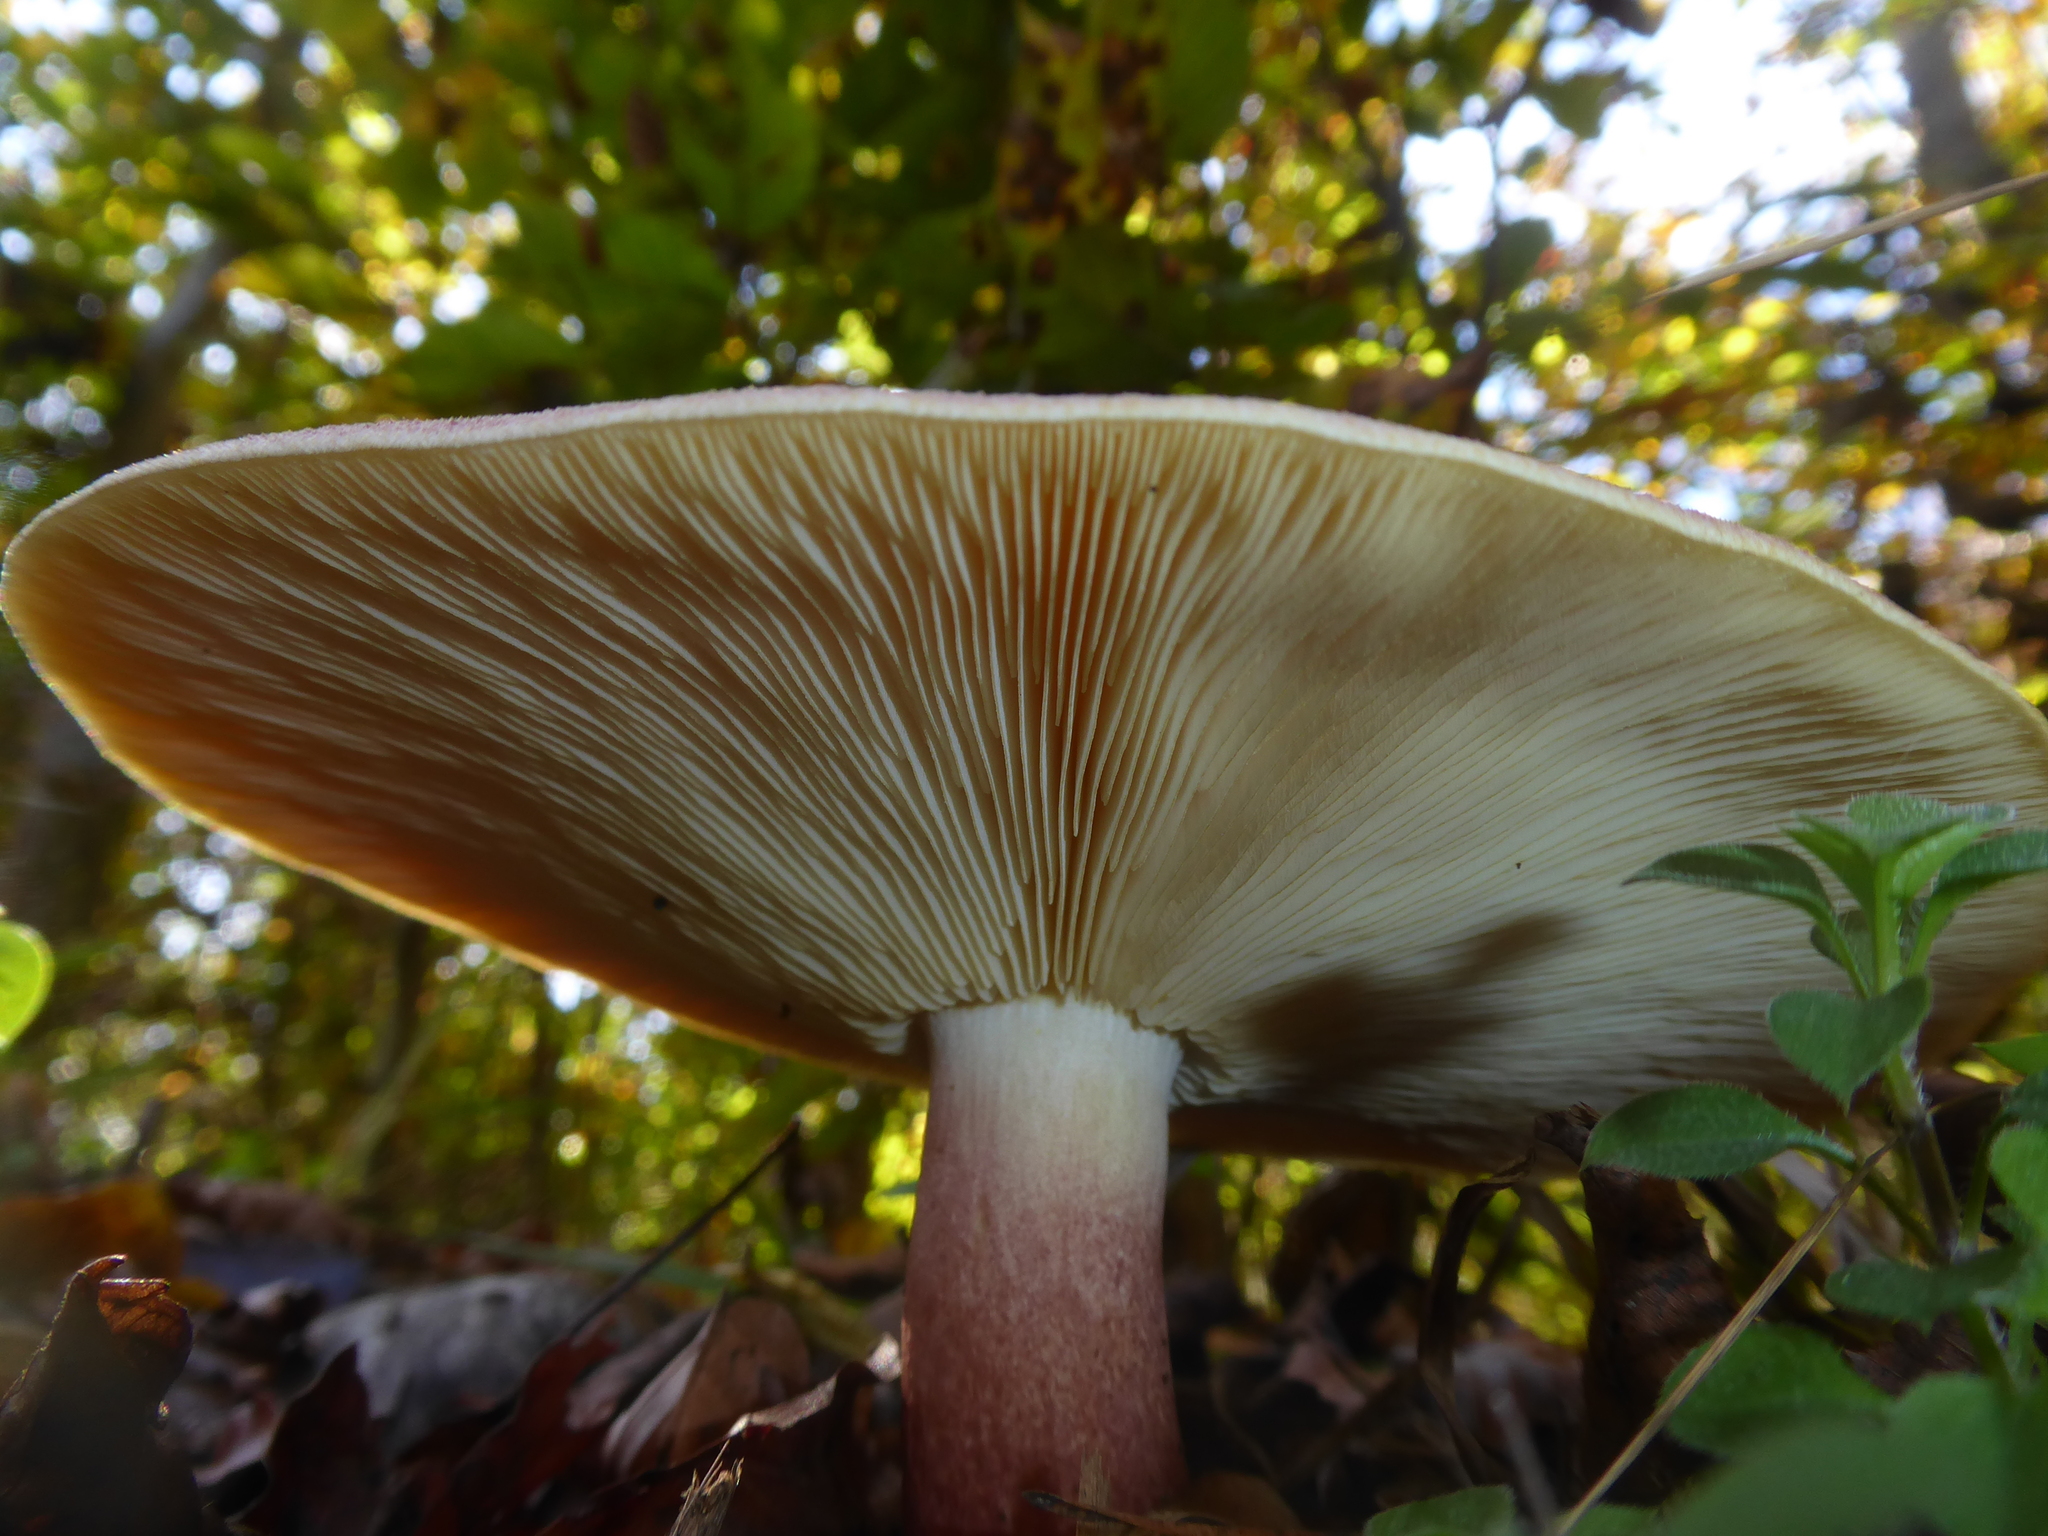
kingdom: Fungi
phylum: Basidiomycota
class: Agaricomycetes
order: Agaricales
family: Tricholomataceae
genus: Tricholomopsis
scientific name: Tricholomopsis rutilans
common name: Plums and custard
